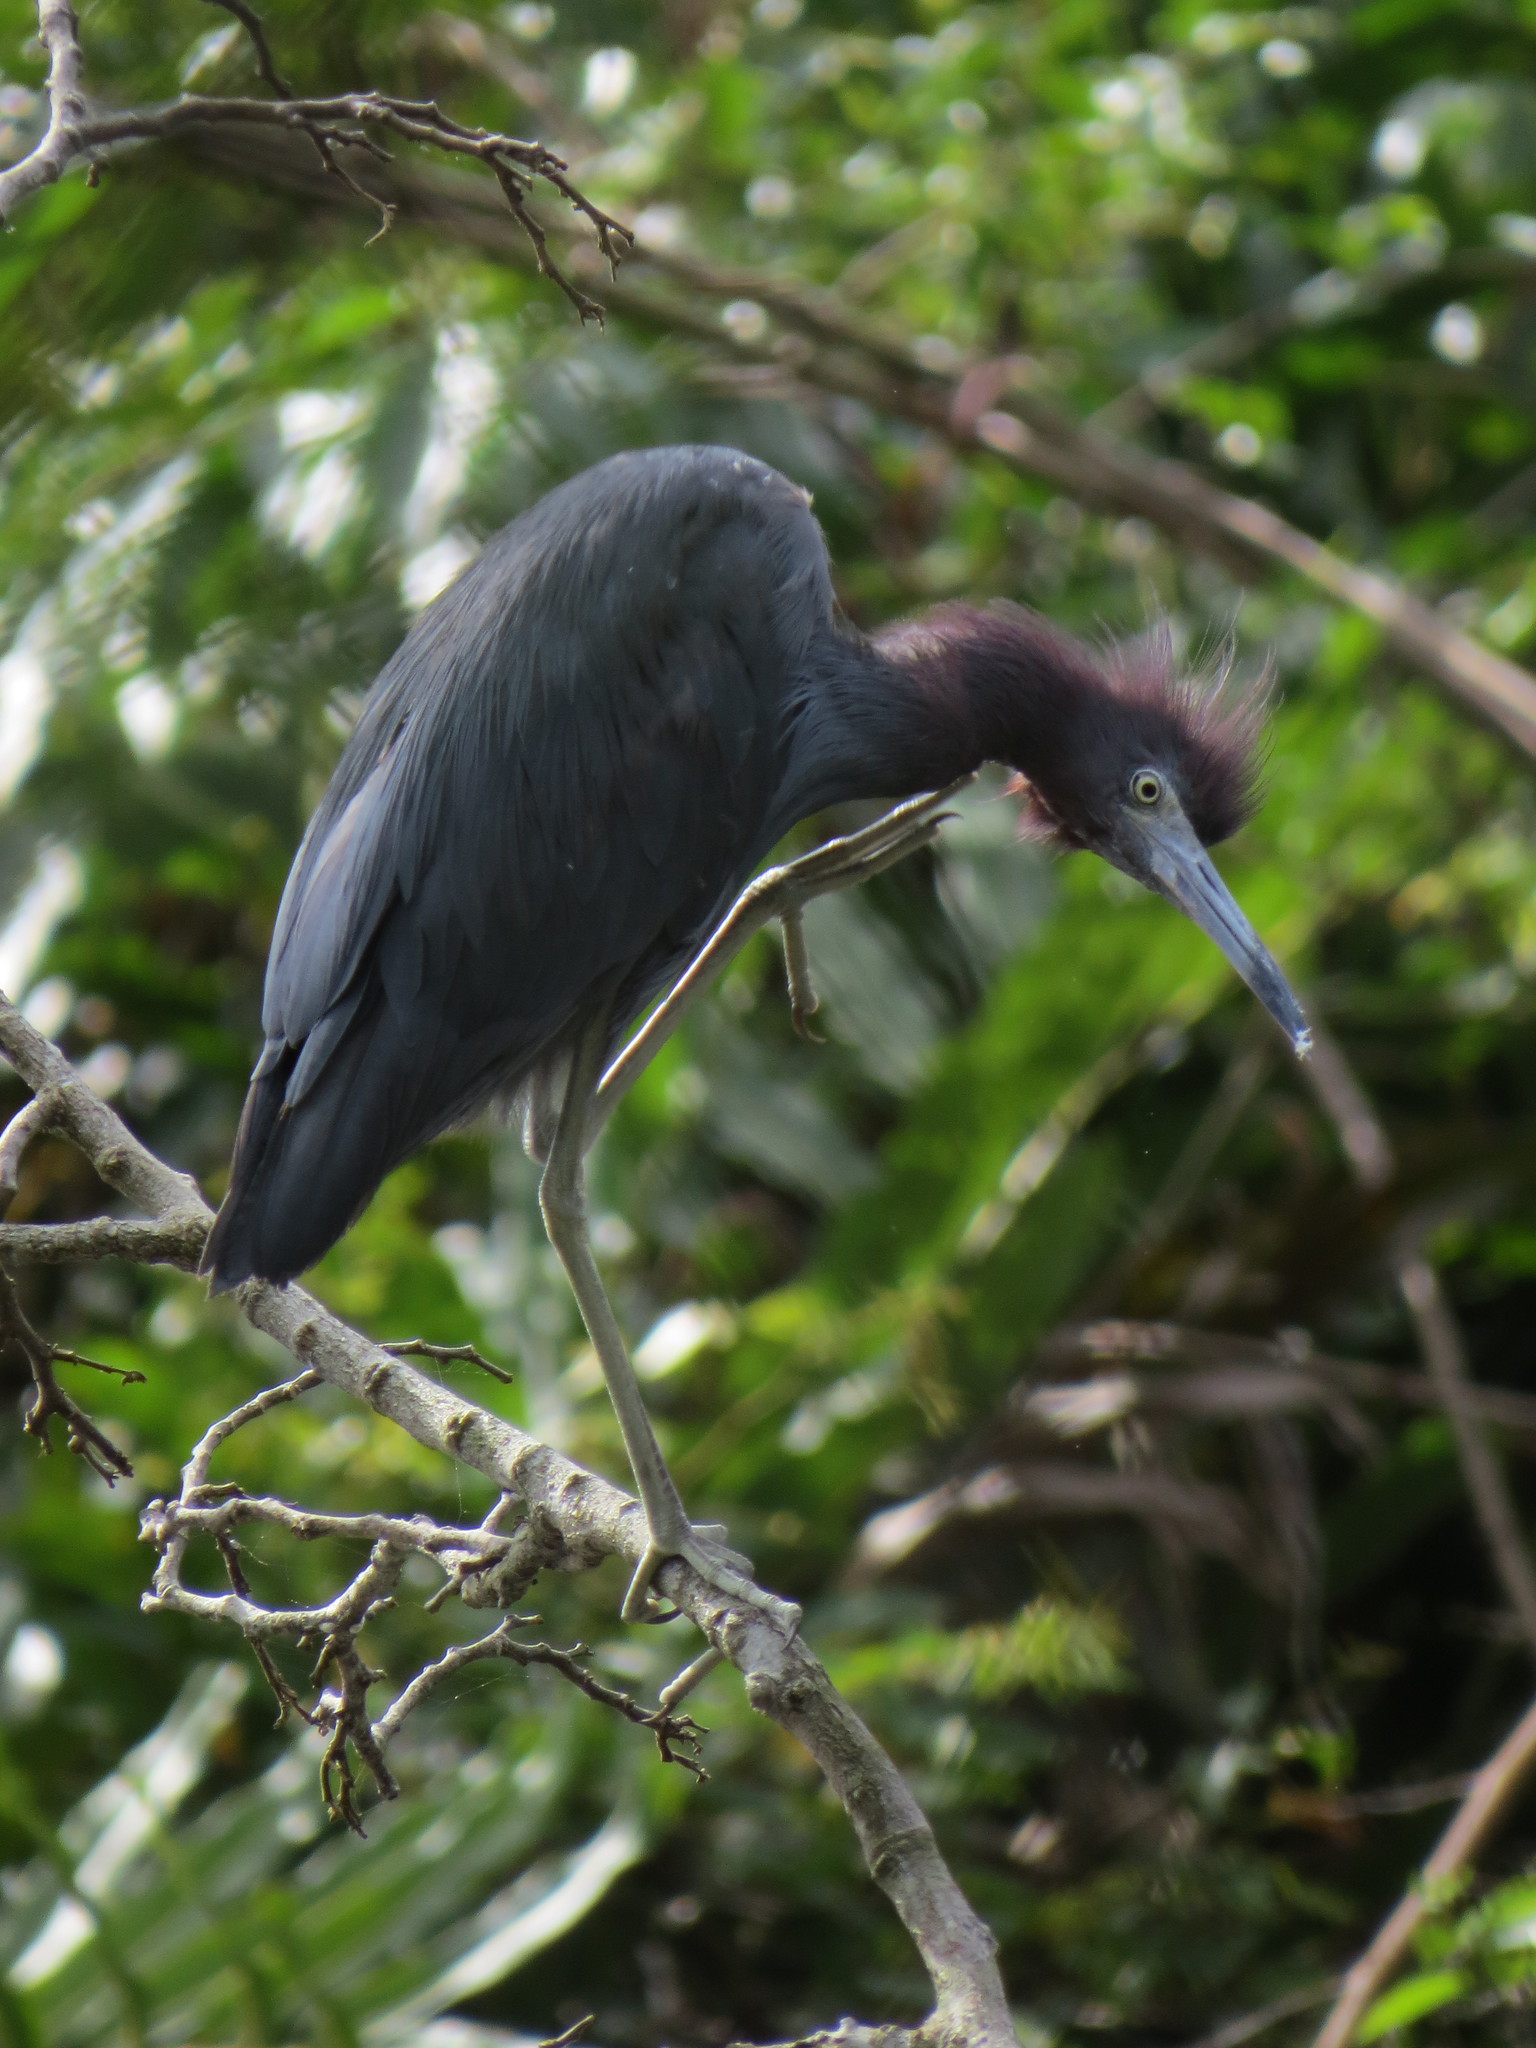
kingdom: Animalia
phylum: Chordata
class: Aves
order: Pelecaniformes
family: Ardeidae
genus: Egretta
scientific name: Egretta caerulea
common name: Little blue heron
